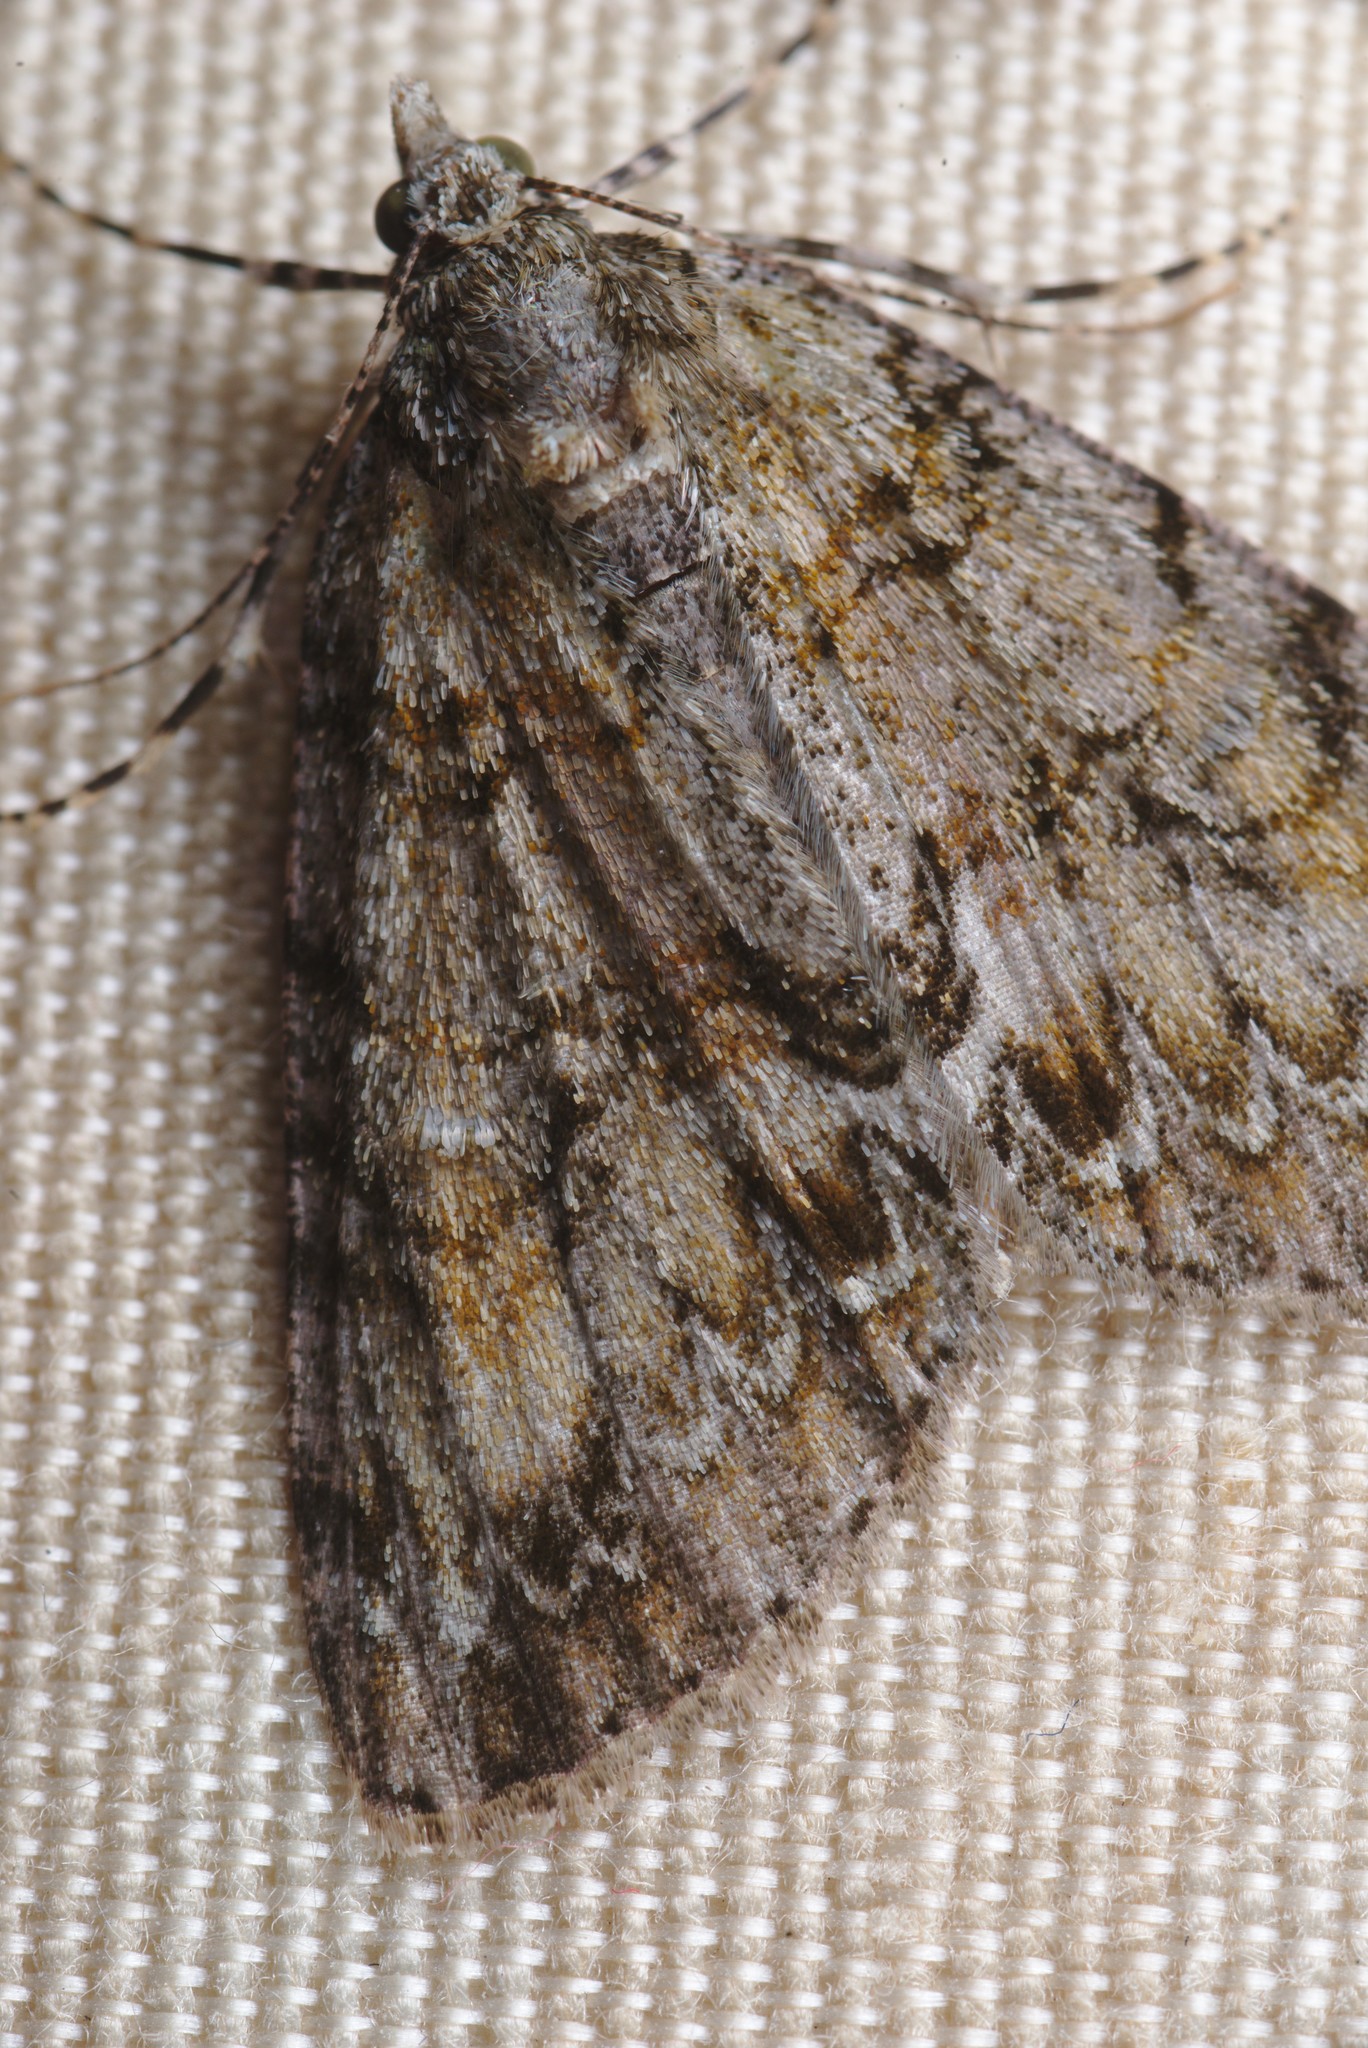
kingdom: Animalia
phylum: Arthropoda
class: Insecta
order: Lepidoptera
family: Geometridae
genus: Pseudocoremia
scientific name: Pseudocoremia suavis
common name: Common forest looper
